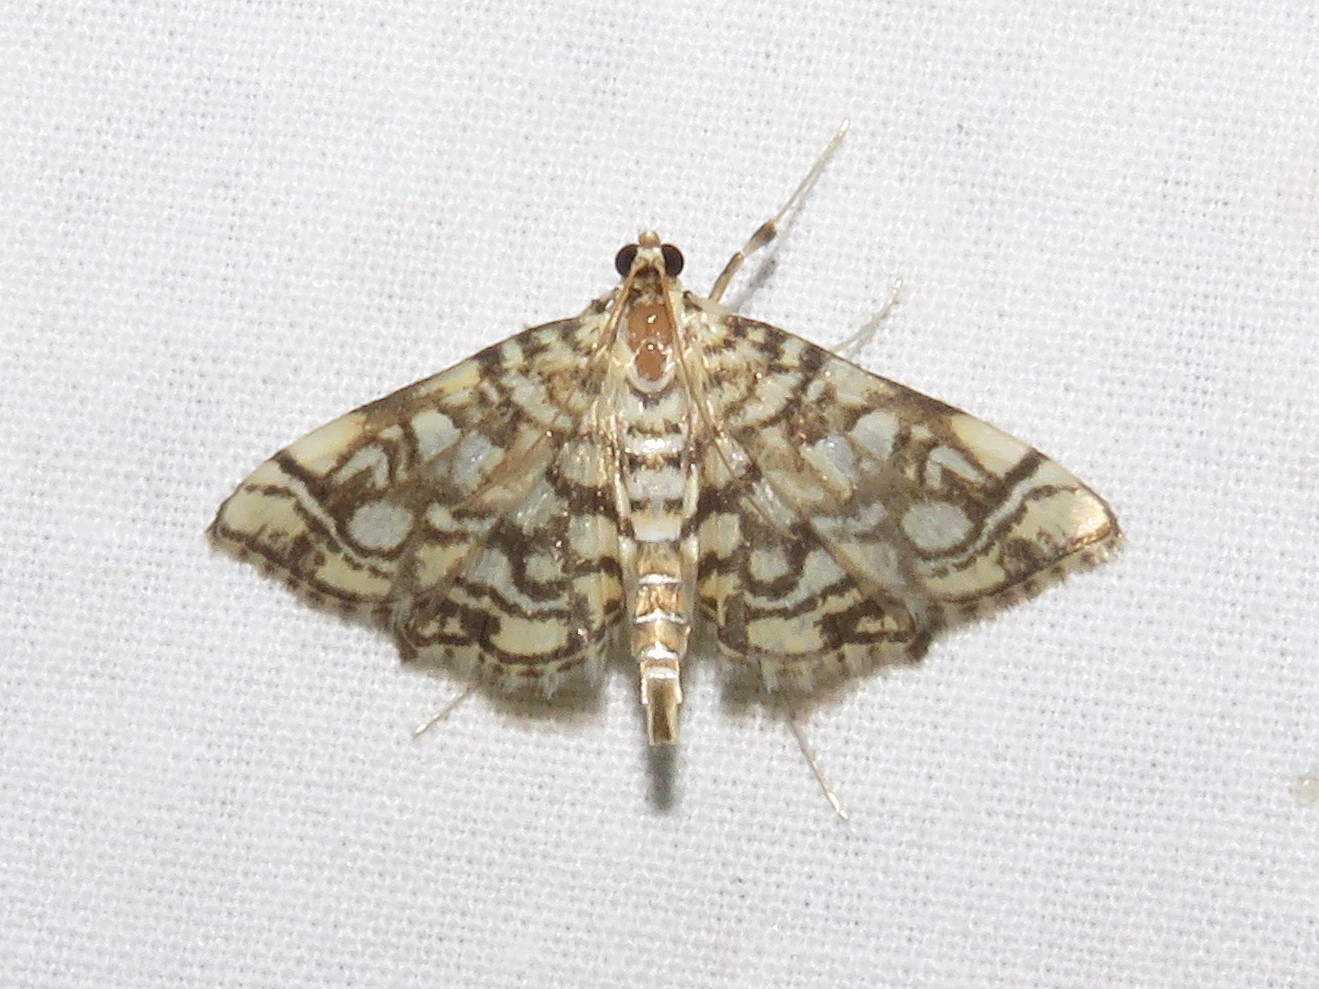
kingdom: Animalia
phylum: Arthropoda
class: Insecta
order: Lepidoptera
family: Crambidae
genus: Lygropia
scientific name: Lygropia rivulalis
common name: Bog lygropia moth
